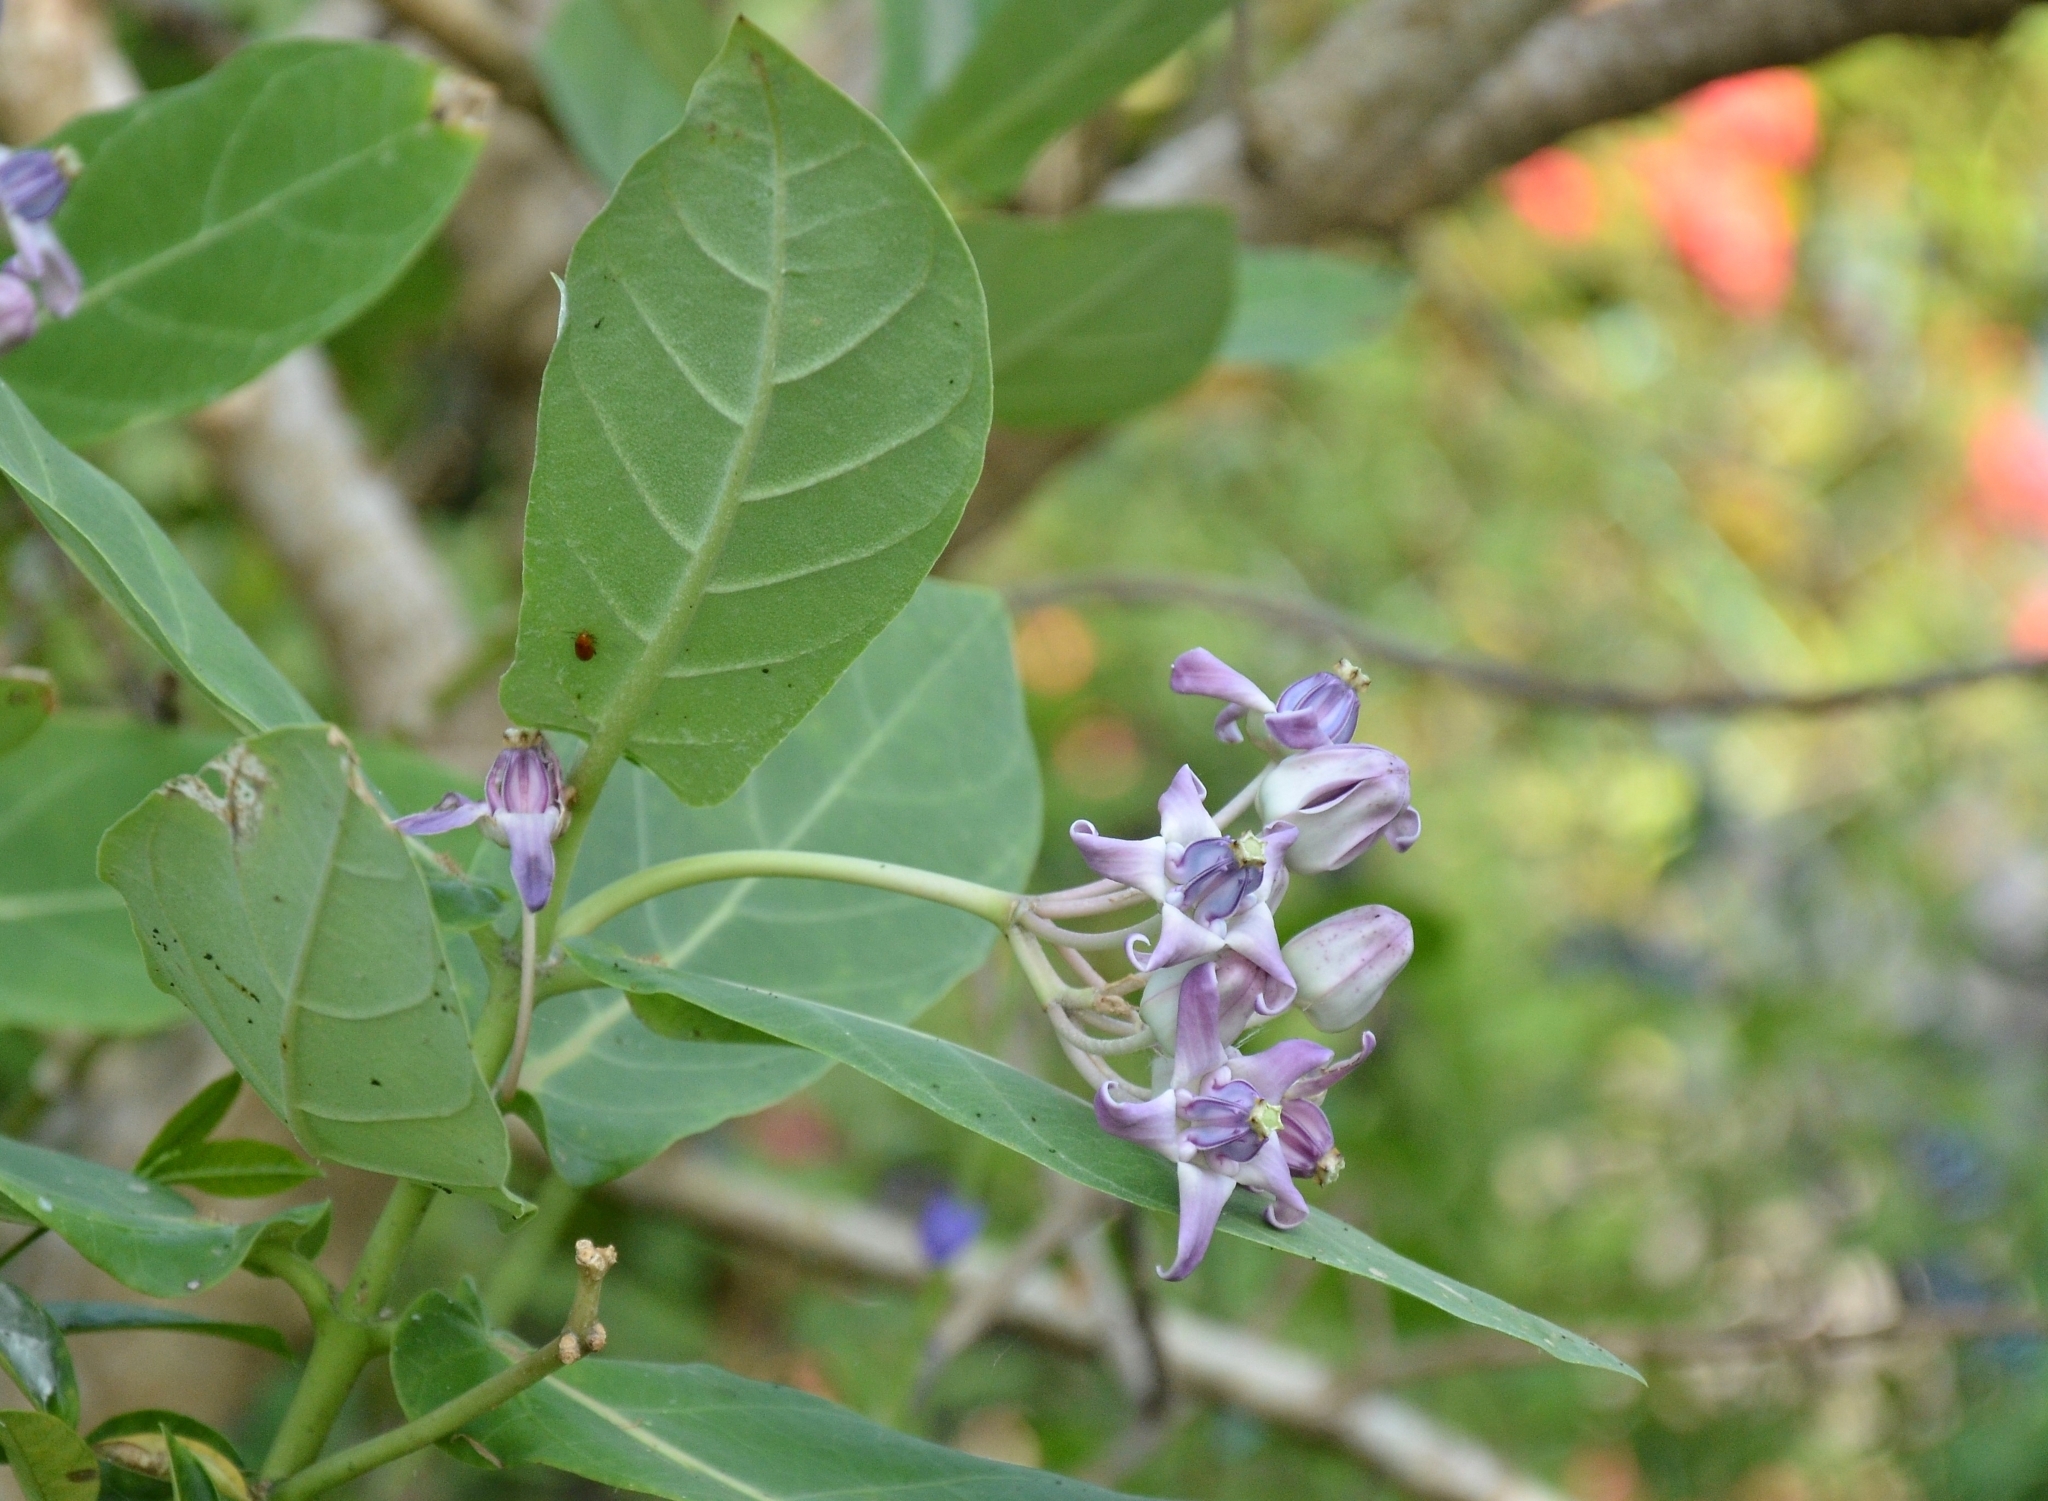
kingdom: Plantae
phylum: Tracheophyta
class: Magnoliopsida
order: Gentianales
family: Apocynaceae
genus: Calotropis
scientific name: Calotropis gigantea
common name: Crown flower
